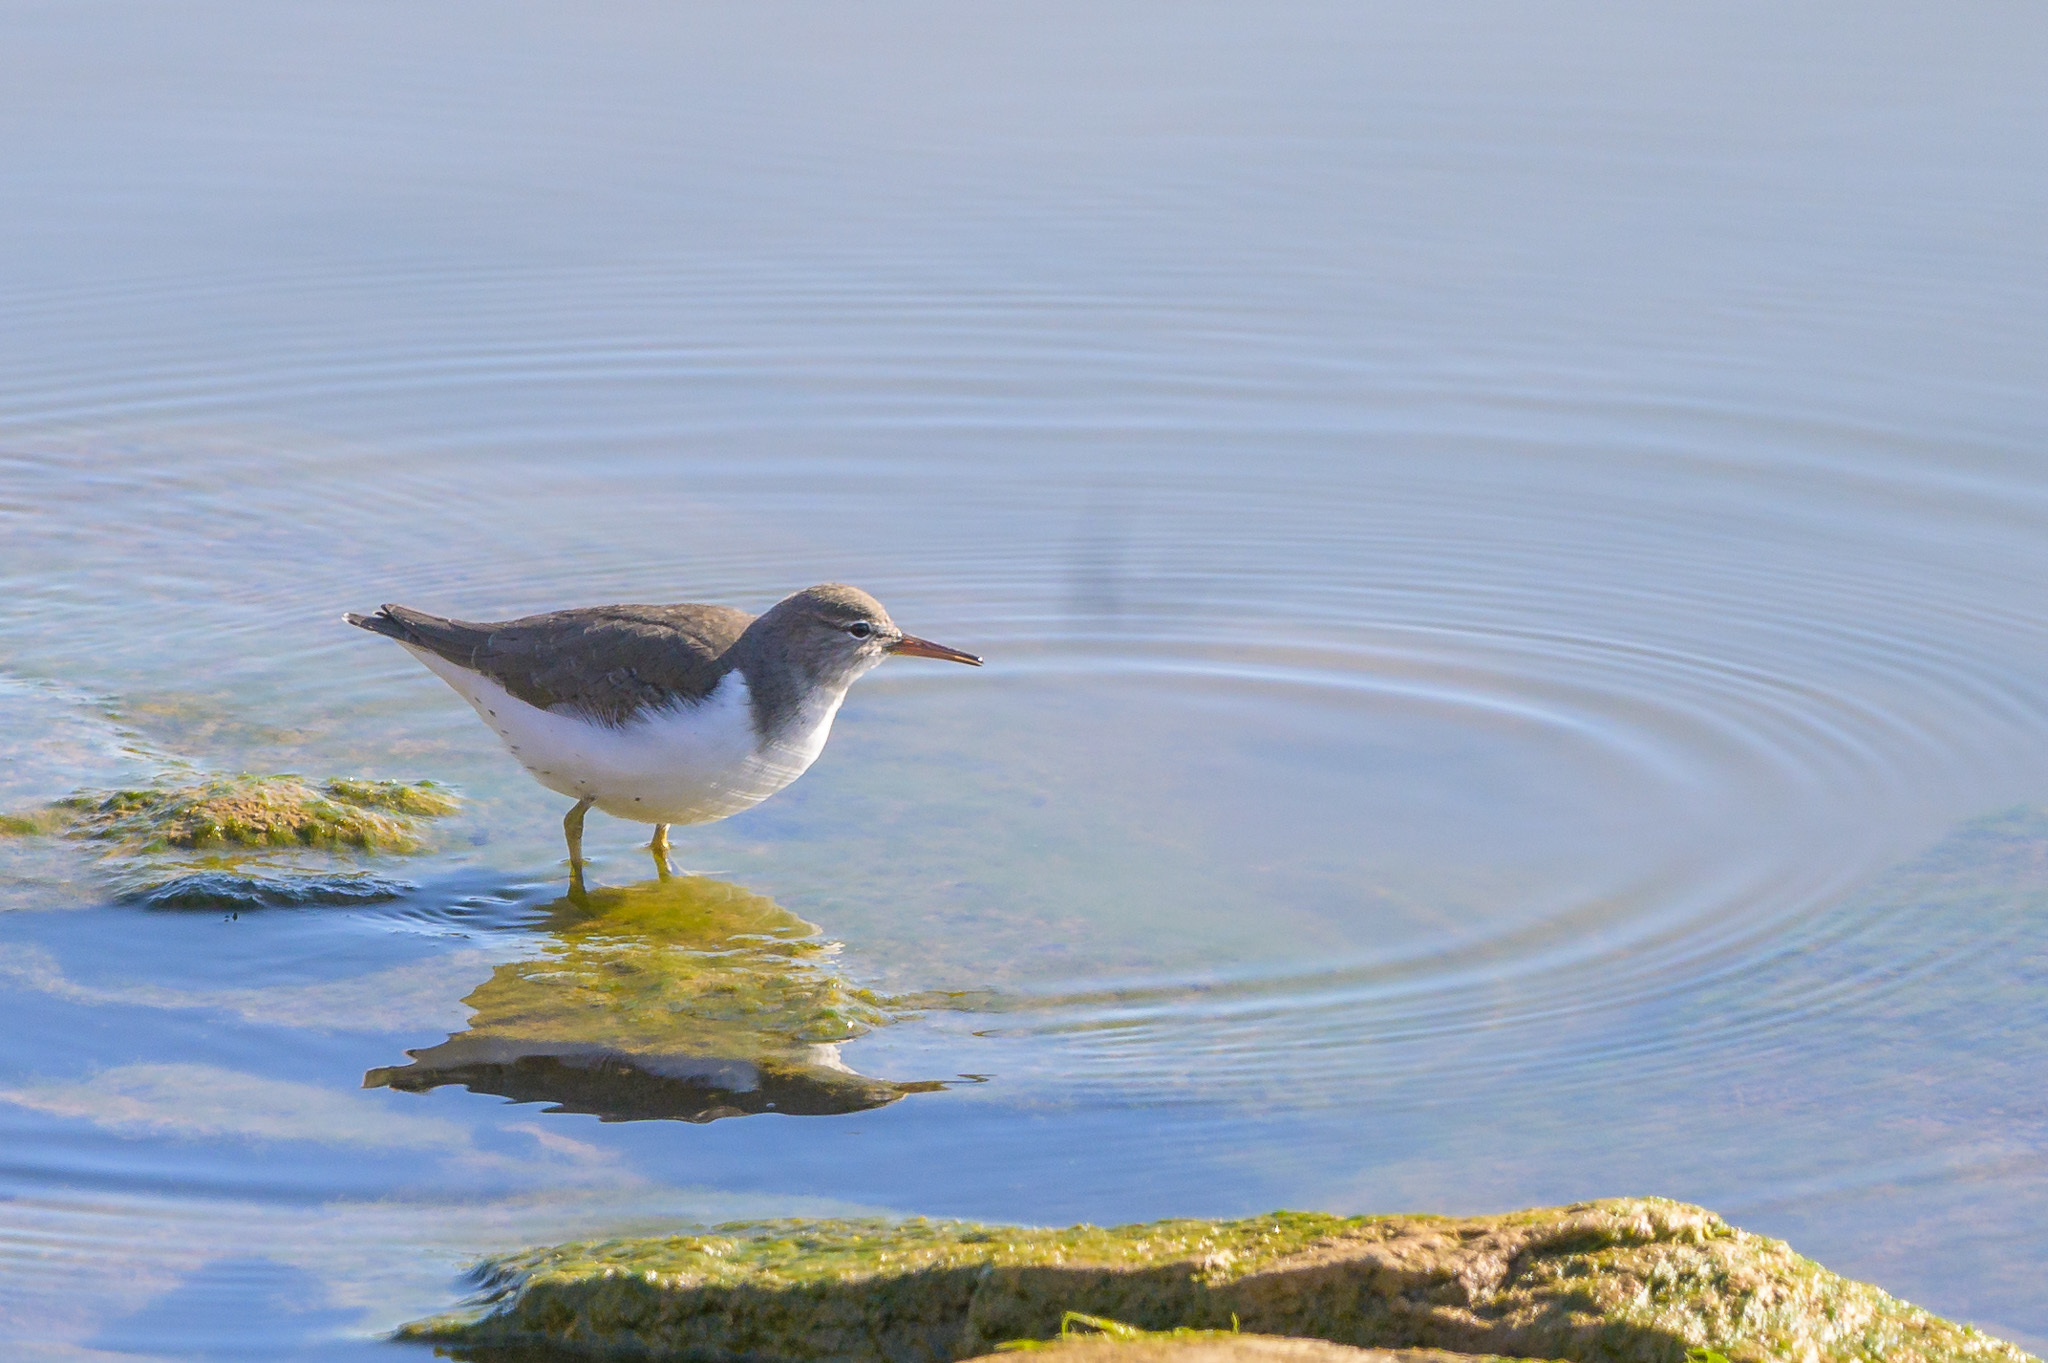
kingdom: Animalia
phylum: Chordata
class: Aves
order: Charadriiformes
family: Scolopacidae
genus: Actitis
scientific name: Actitis macularius
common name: Spotted sandpiper
